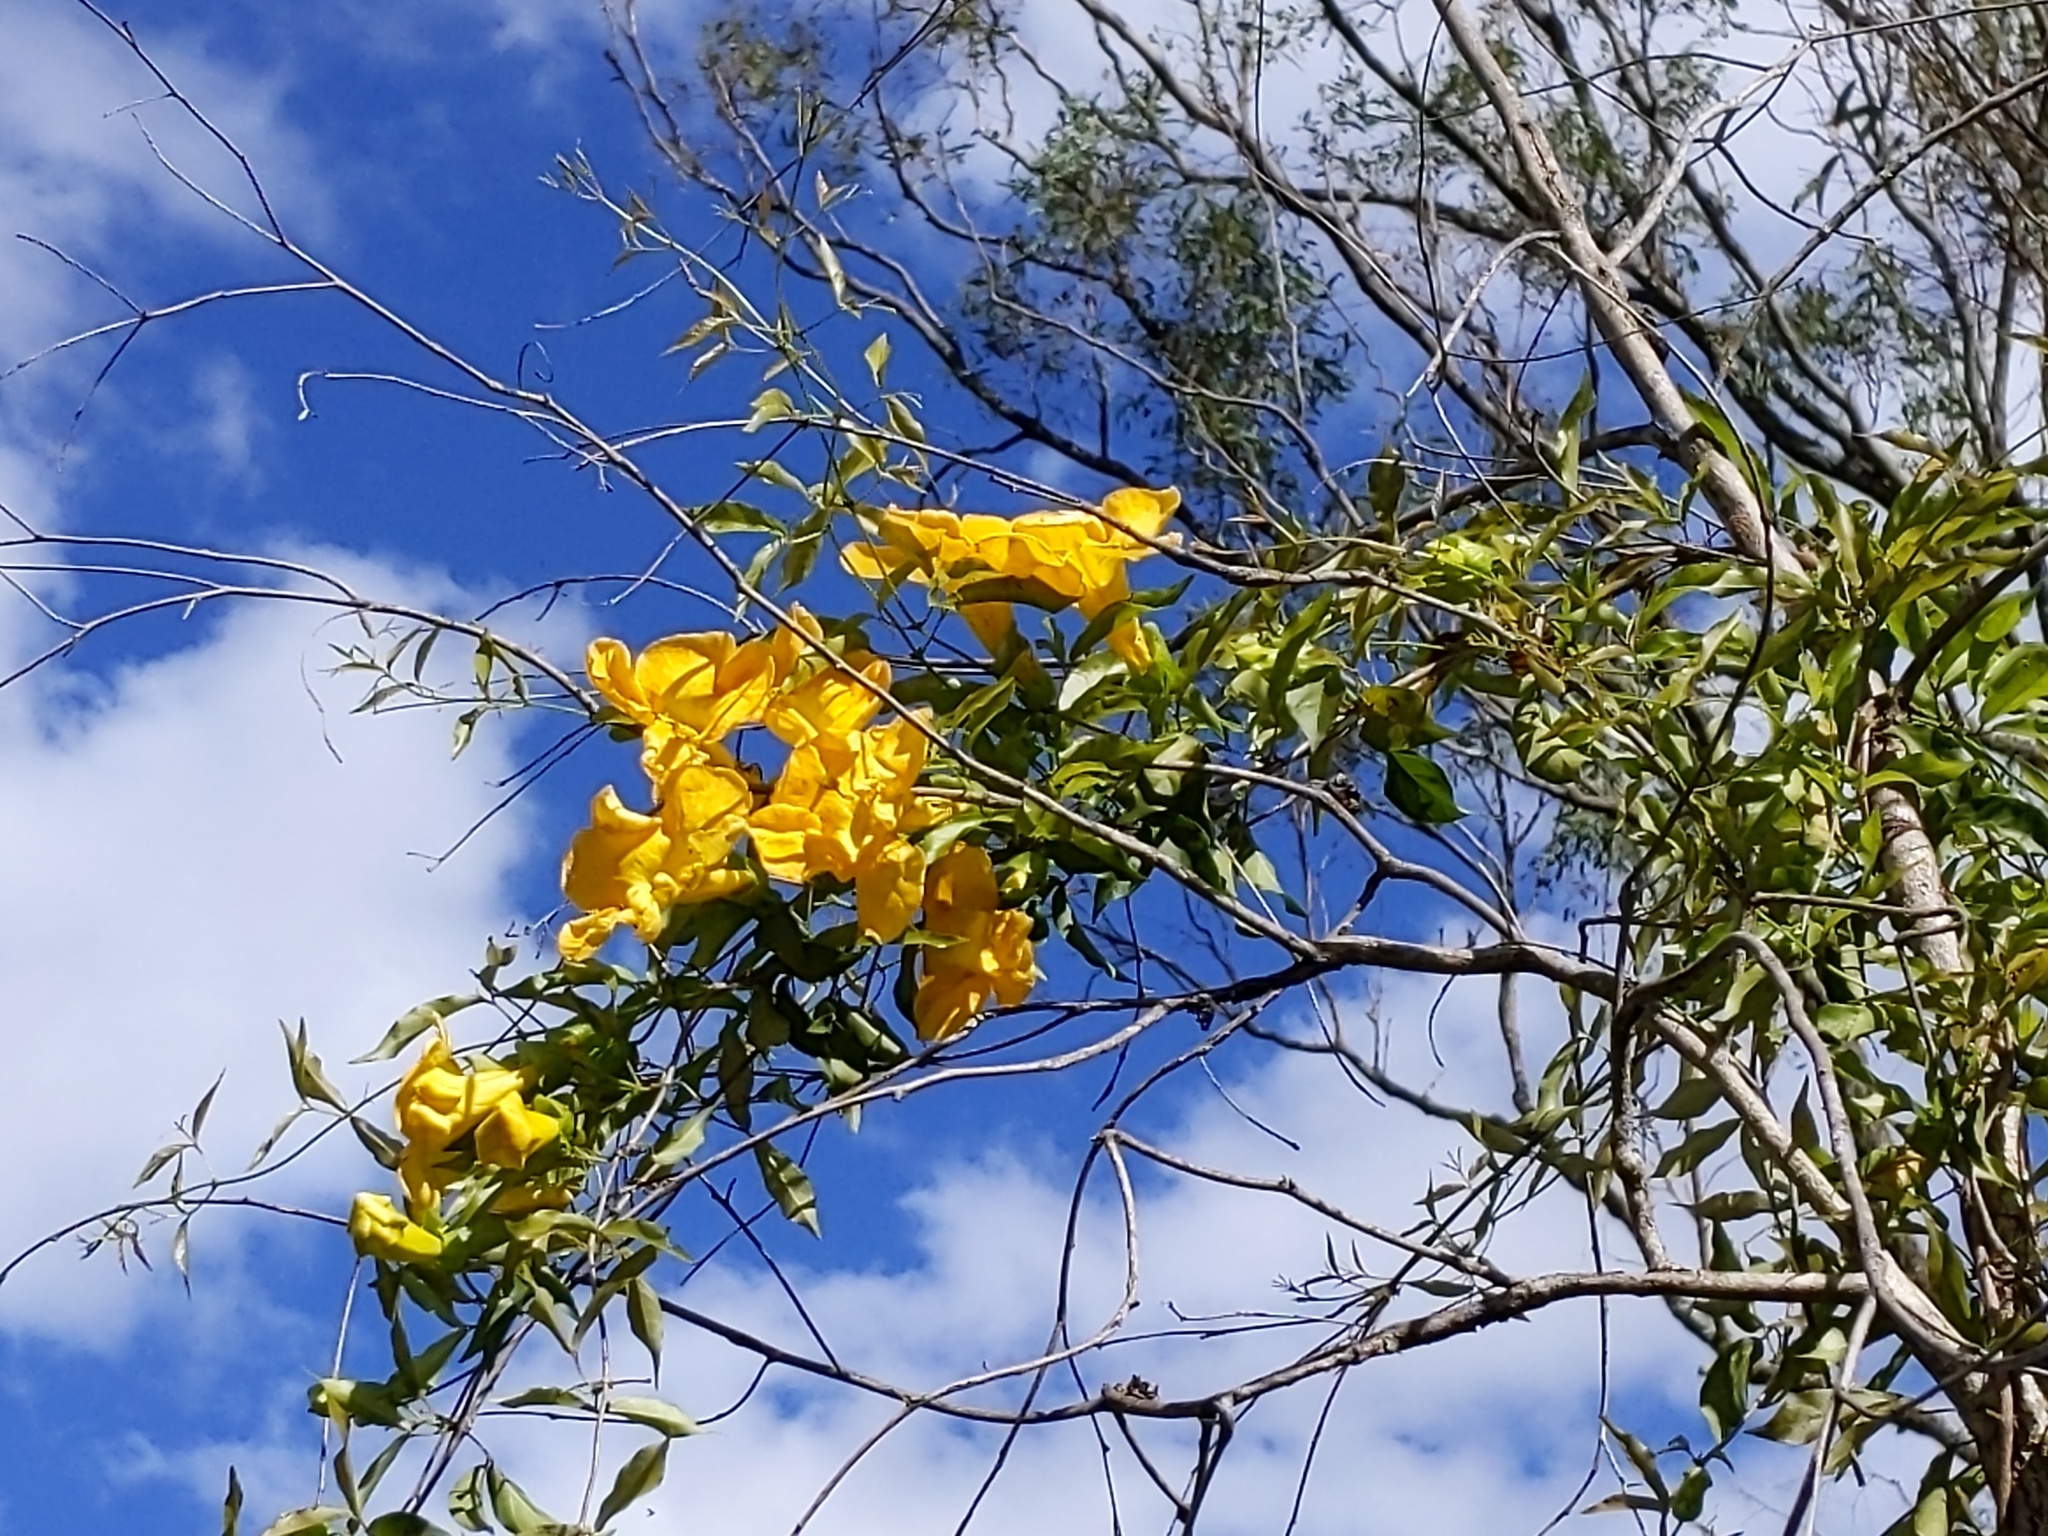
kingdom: Plantae
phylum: Tracheophyta
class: Magnoliopsida
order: Lamiales
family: Bignoniaceae
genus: Dolichandra
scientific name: Dolichandra unguis-cati
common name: Catclaw vine
